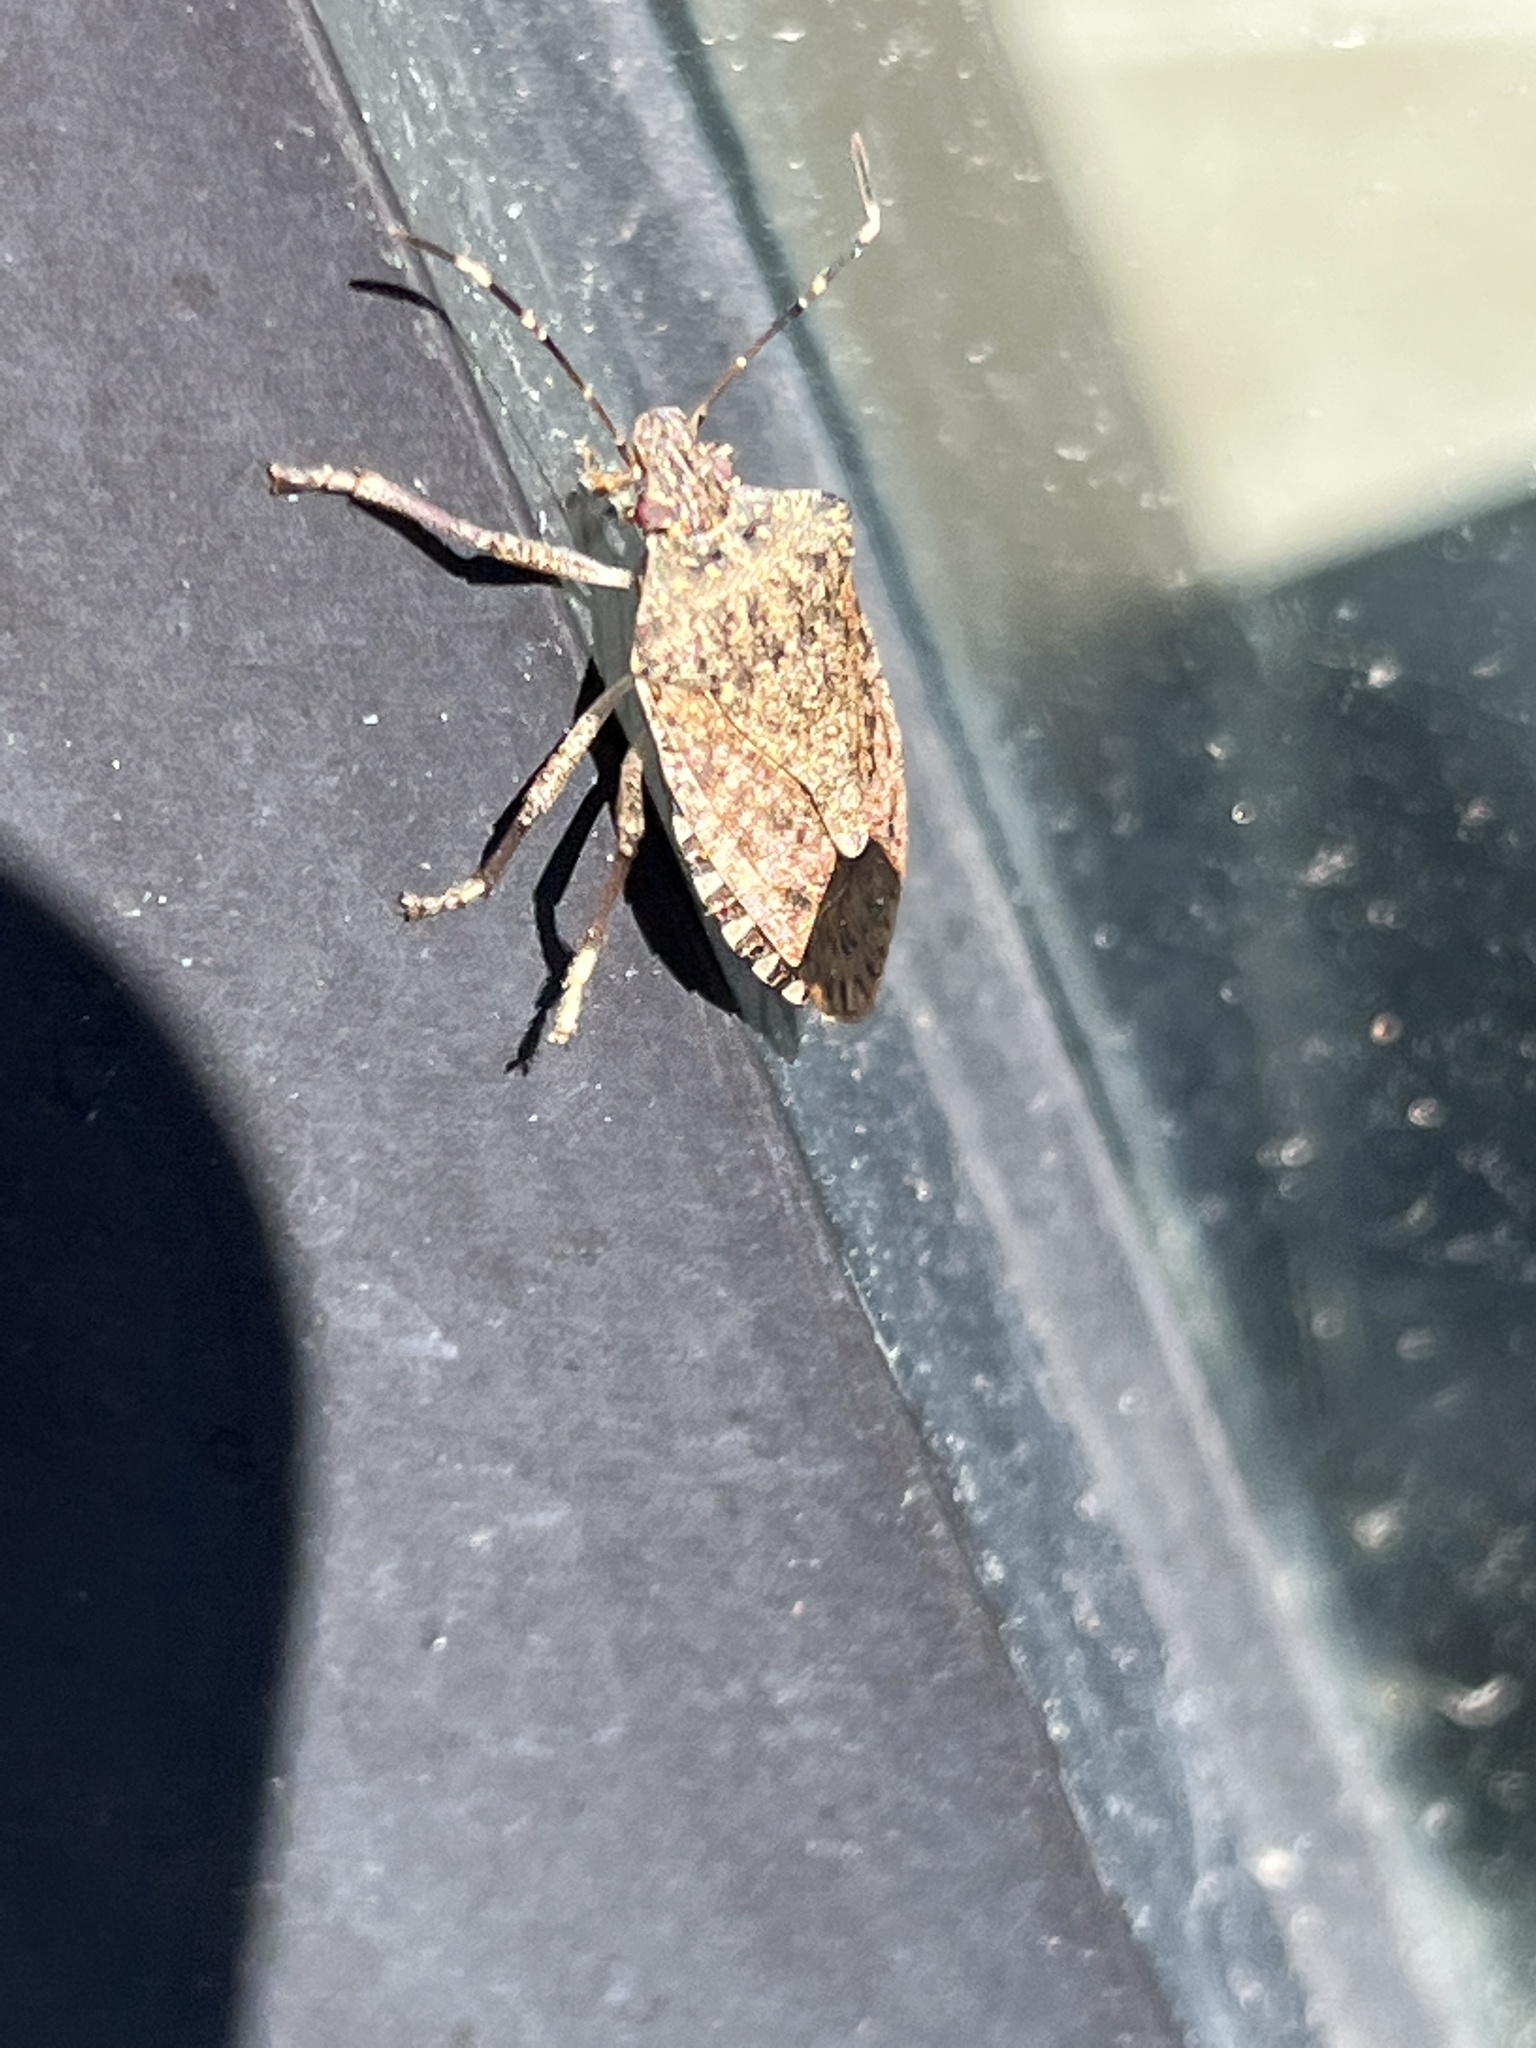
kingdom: Animalia
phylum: Arthropoda
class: Insecta
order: Hemiptera
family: Pentatomidae
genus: Halyomorpha
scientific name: Halyomorpha halys
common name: Brown marmorated stink bug
